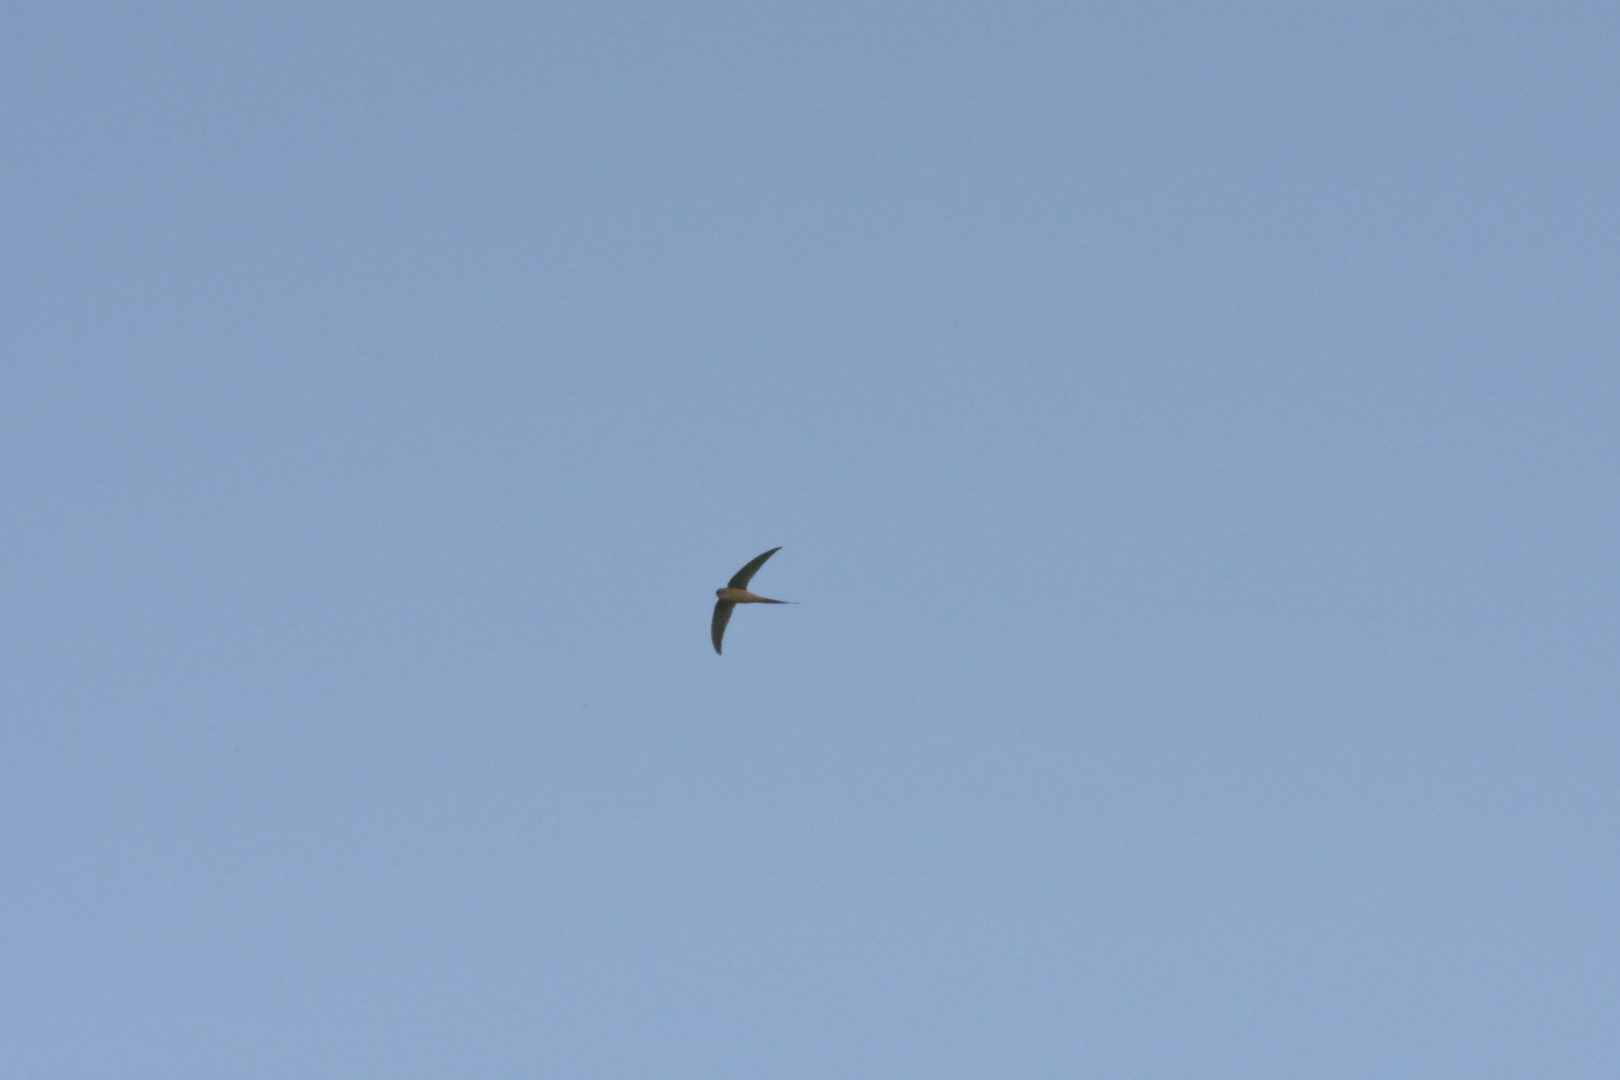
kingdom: Animalia
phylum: Chordata
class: Aves
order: Apodiformes
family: Apodidae
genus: Cypsiurus
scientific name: Cypsiurus parvus
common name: African palm swift
